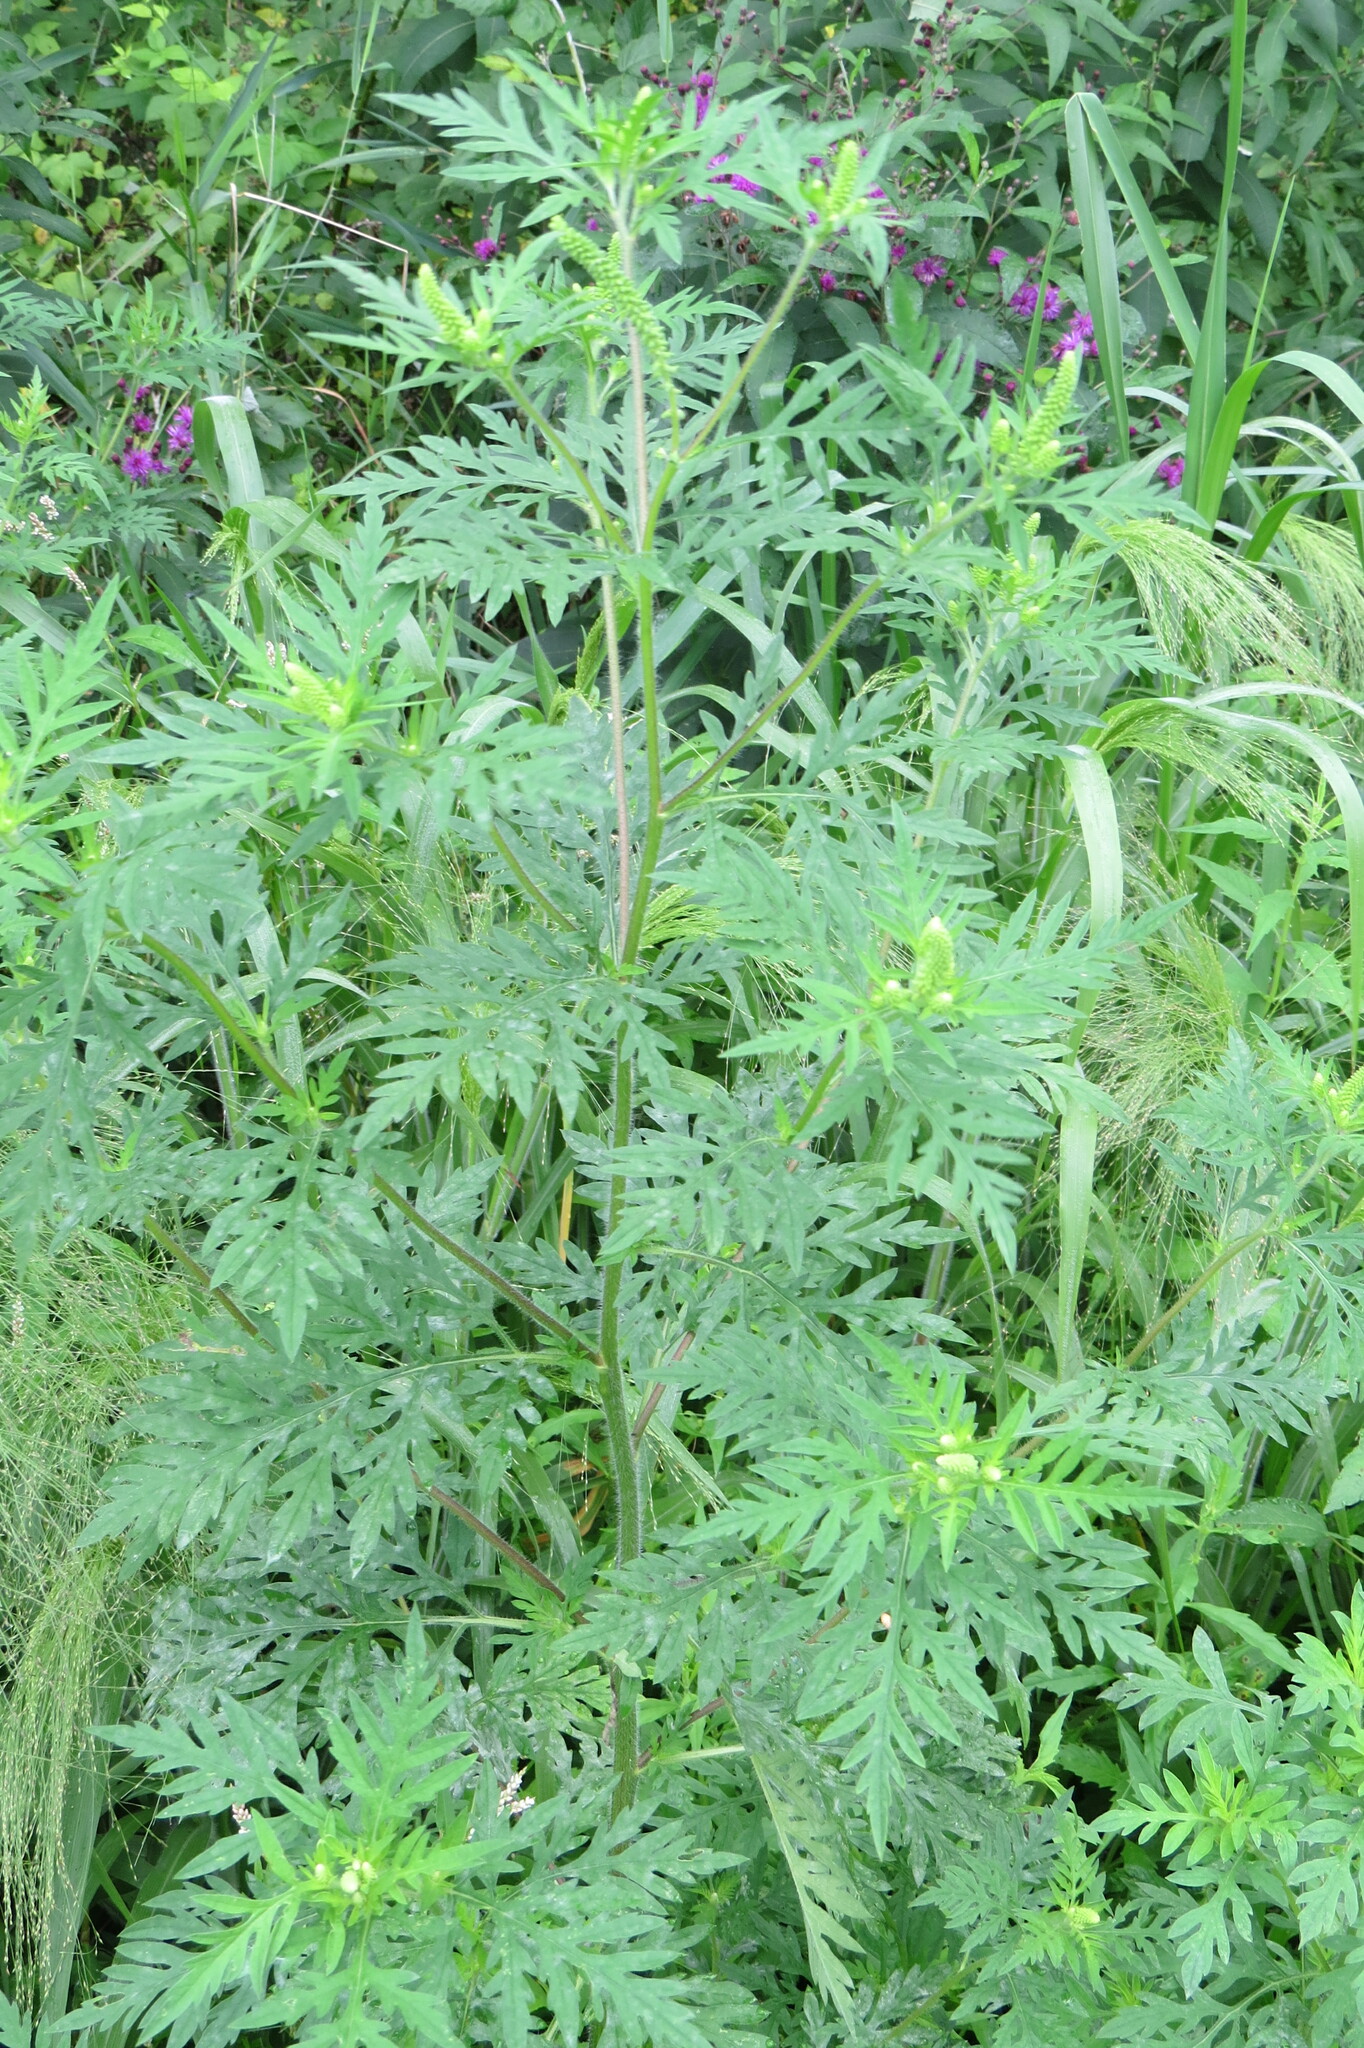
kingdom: Plantae
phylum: Tracheophyta
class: Magnoliopsida
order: Asterales
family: Asteraceae
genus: Ambrosia
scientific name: Ambrosia artemisiifolia
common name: Annual ragweed
